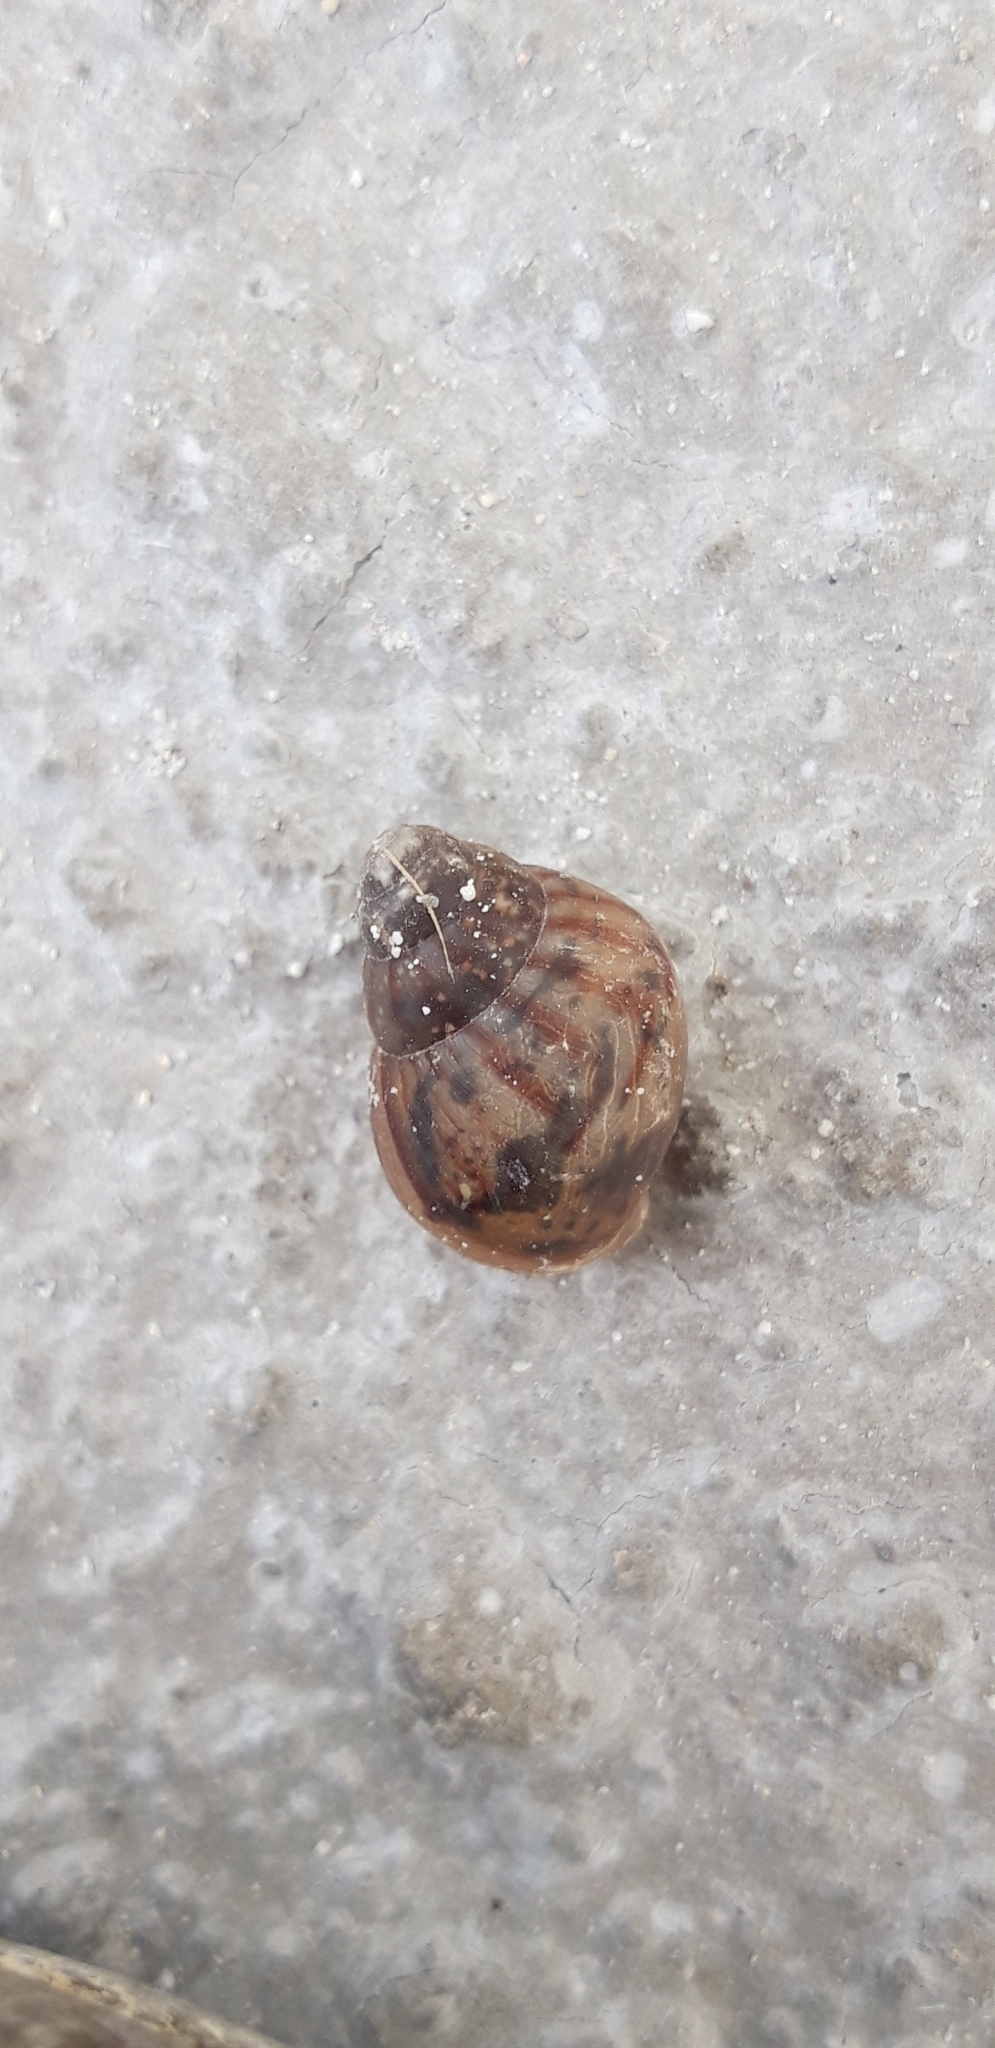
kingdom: Animalia
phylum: Mollusca
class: Gastropoda
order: Stylommatophora
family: Achatinidae
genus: Lissachatina
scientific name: Lissachatina fulica
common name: Giant african snail
